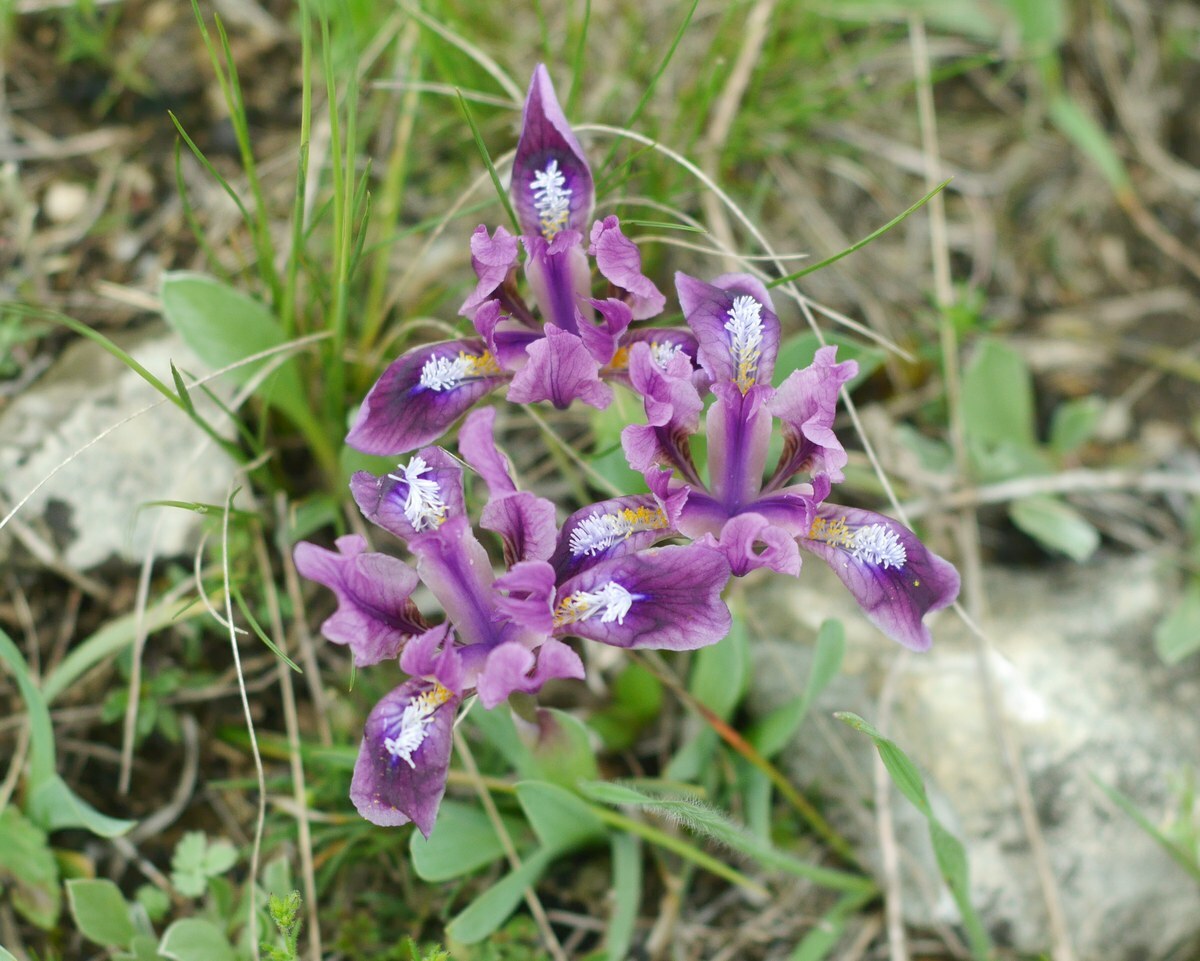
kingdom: Plantae
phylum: Tracheophyta
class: Liliopsida
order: Asparagales
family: Iridaceae
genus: Iris
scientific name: Iris pumila
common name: Dwarf iris
